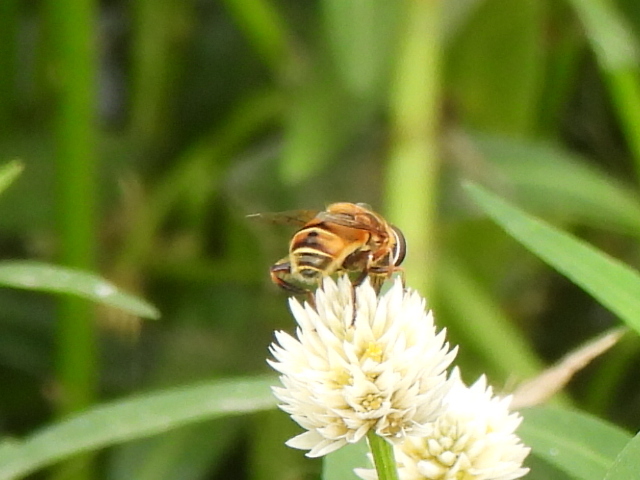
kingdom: Animalia
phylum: Arthropoda
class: Insecta
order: Diptera
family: Syrphidae
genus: Palpada
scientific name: Palpada vinetorum
